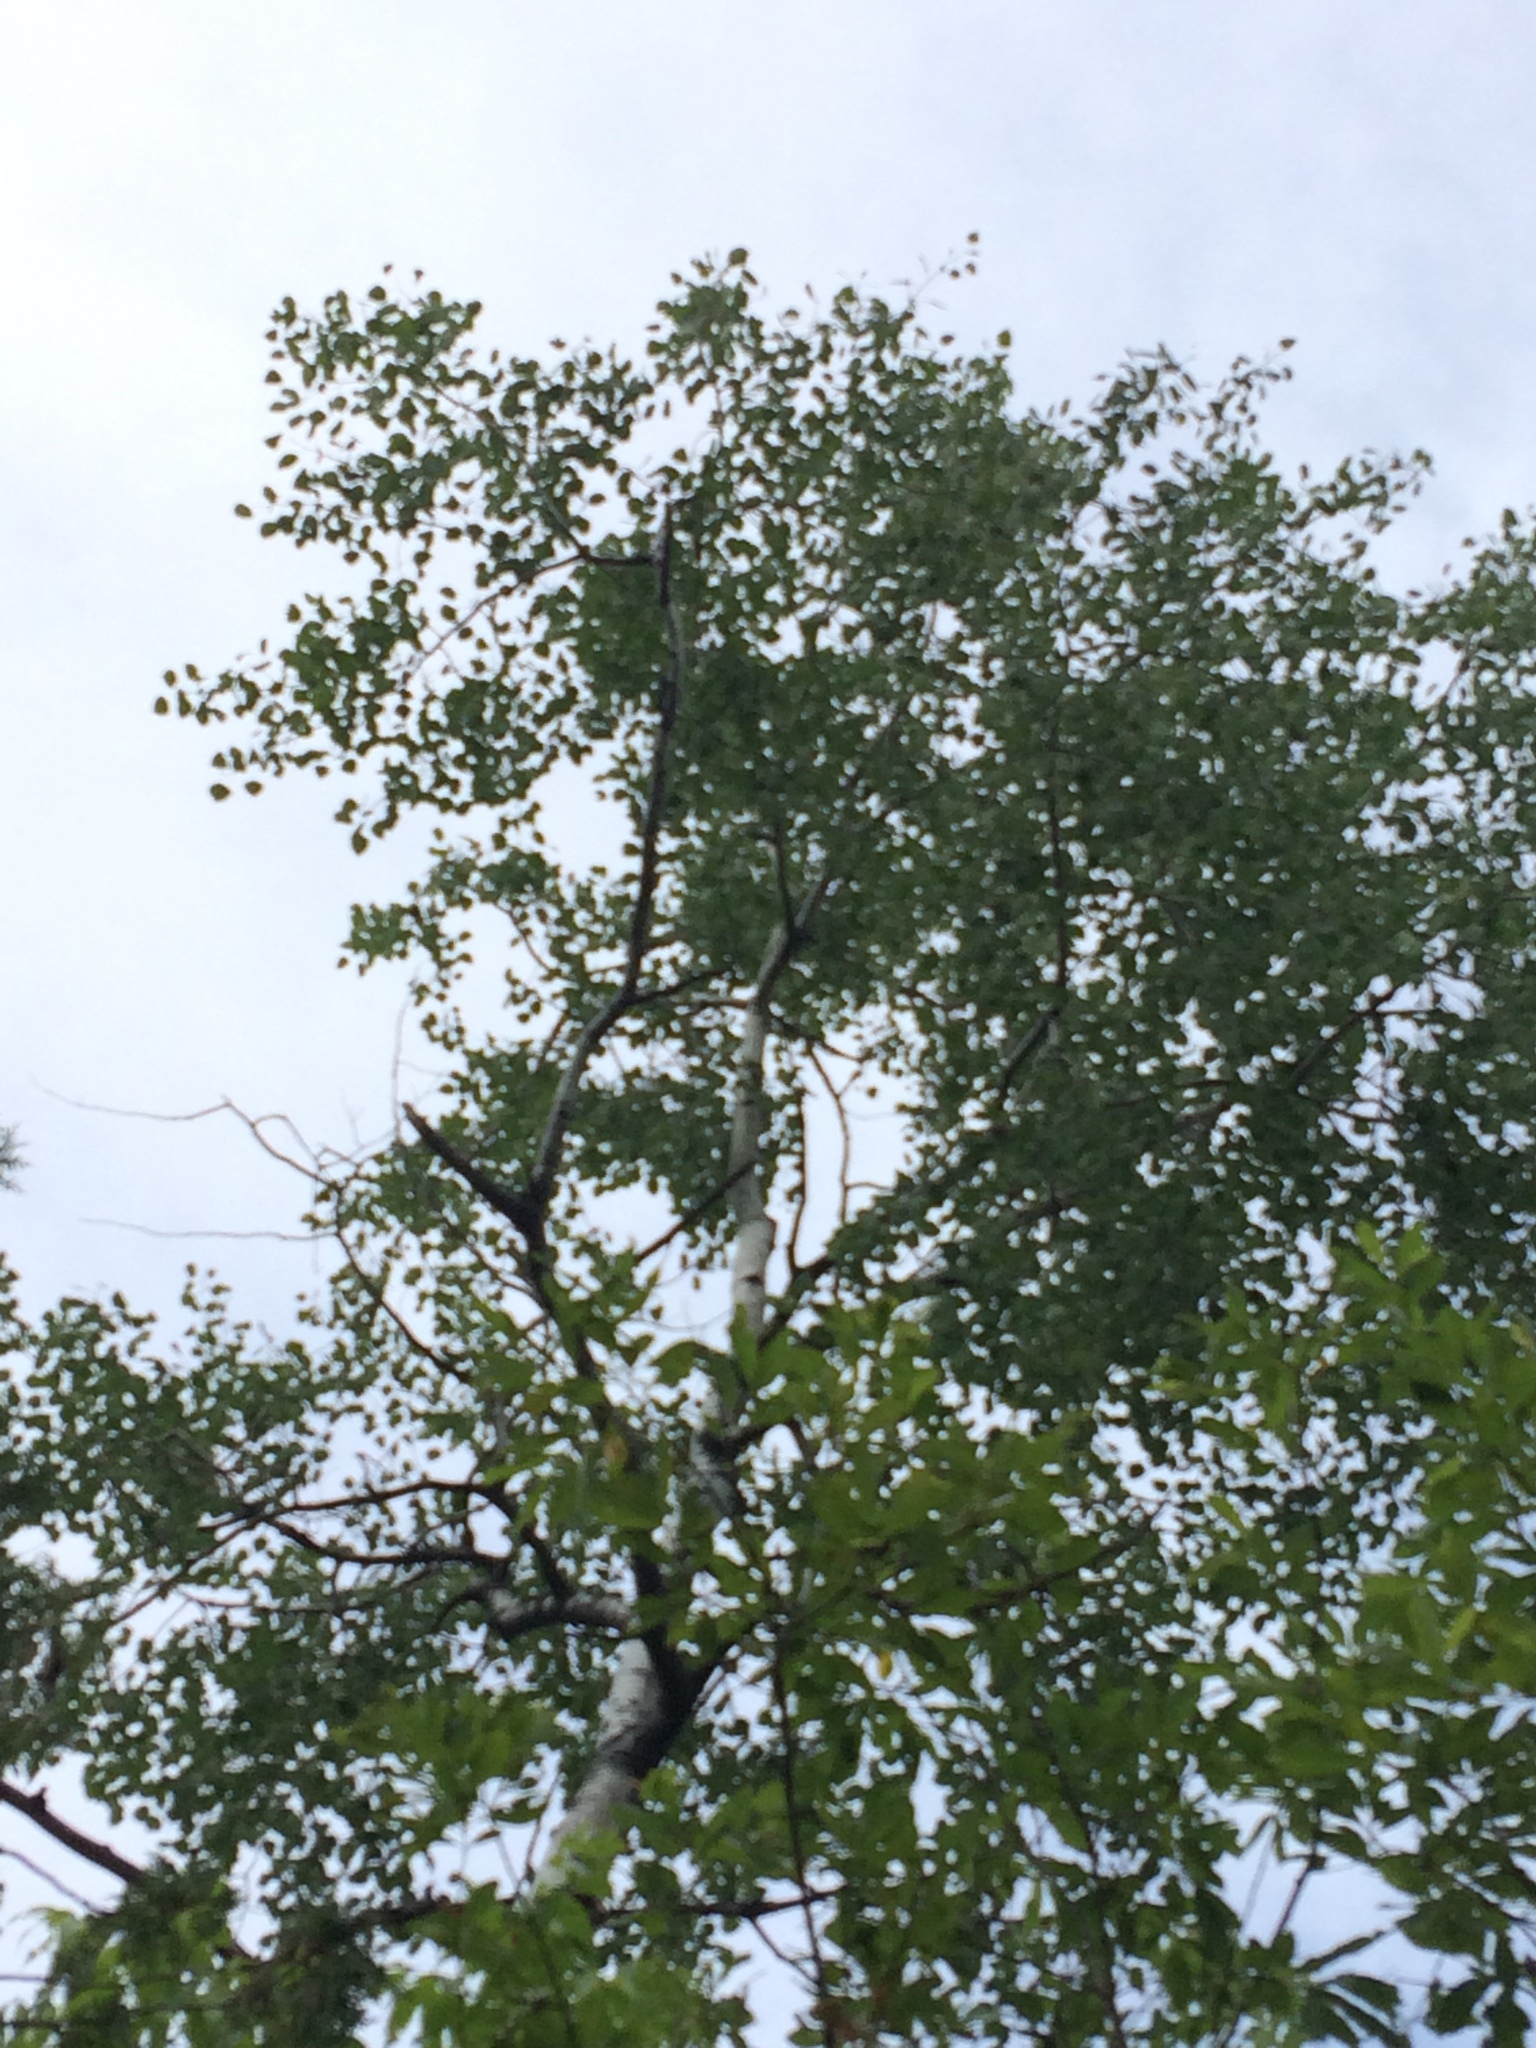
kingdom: Plantae
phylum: Tracheophyta
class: Magnoliopsida
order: Malpighiales
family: Salicaceae
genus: Populus
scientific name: Populus tremuloides
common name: Quaking aspen
